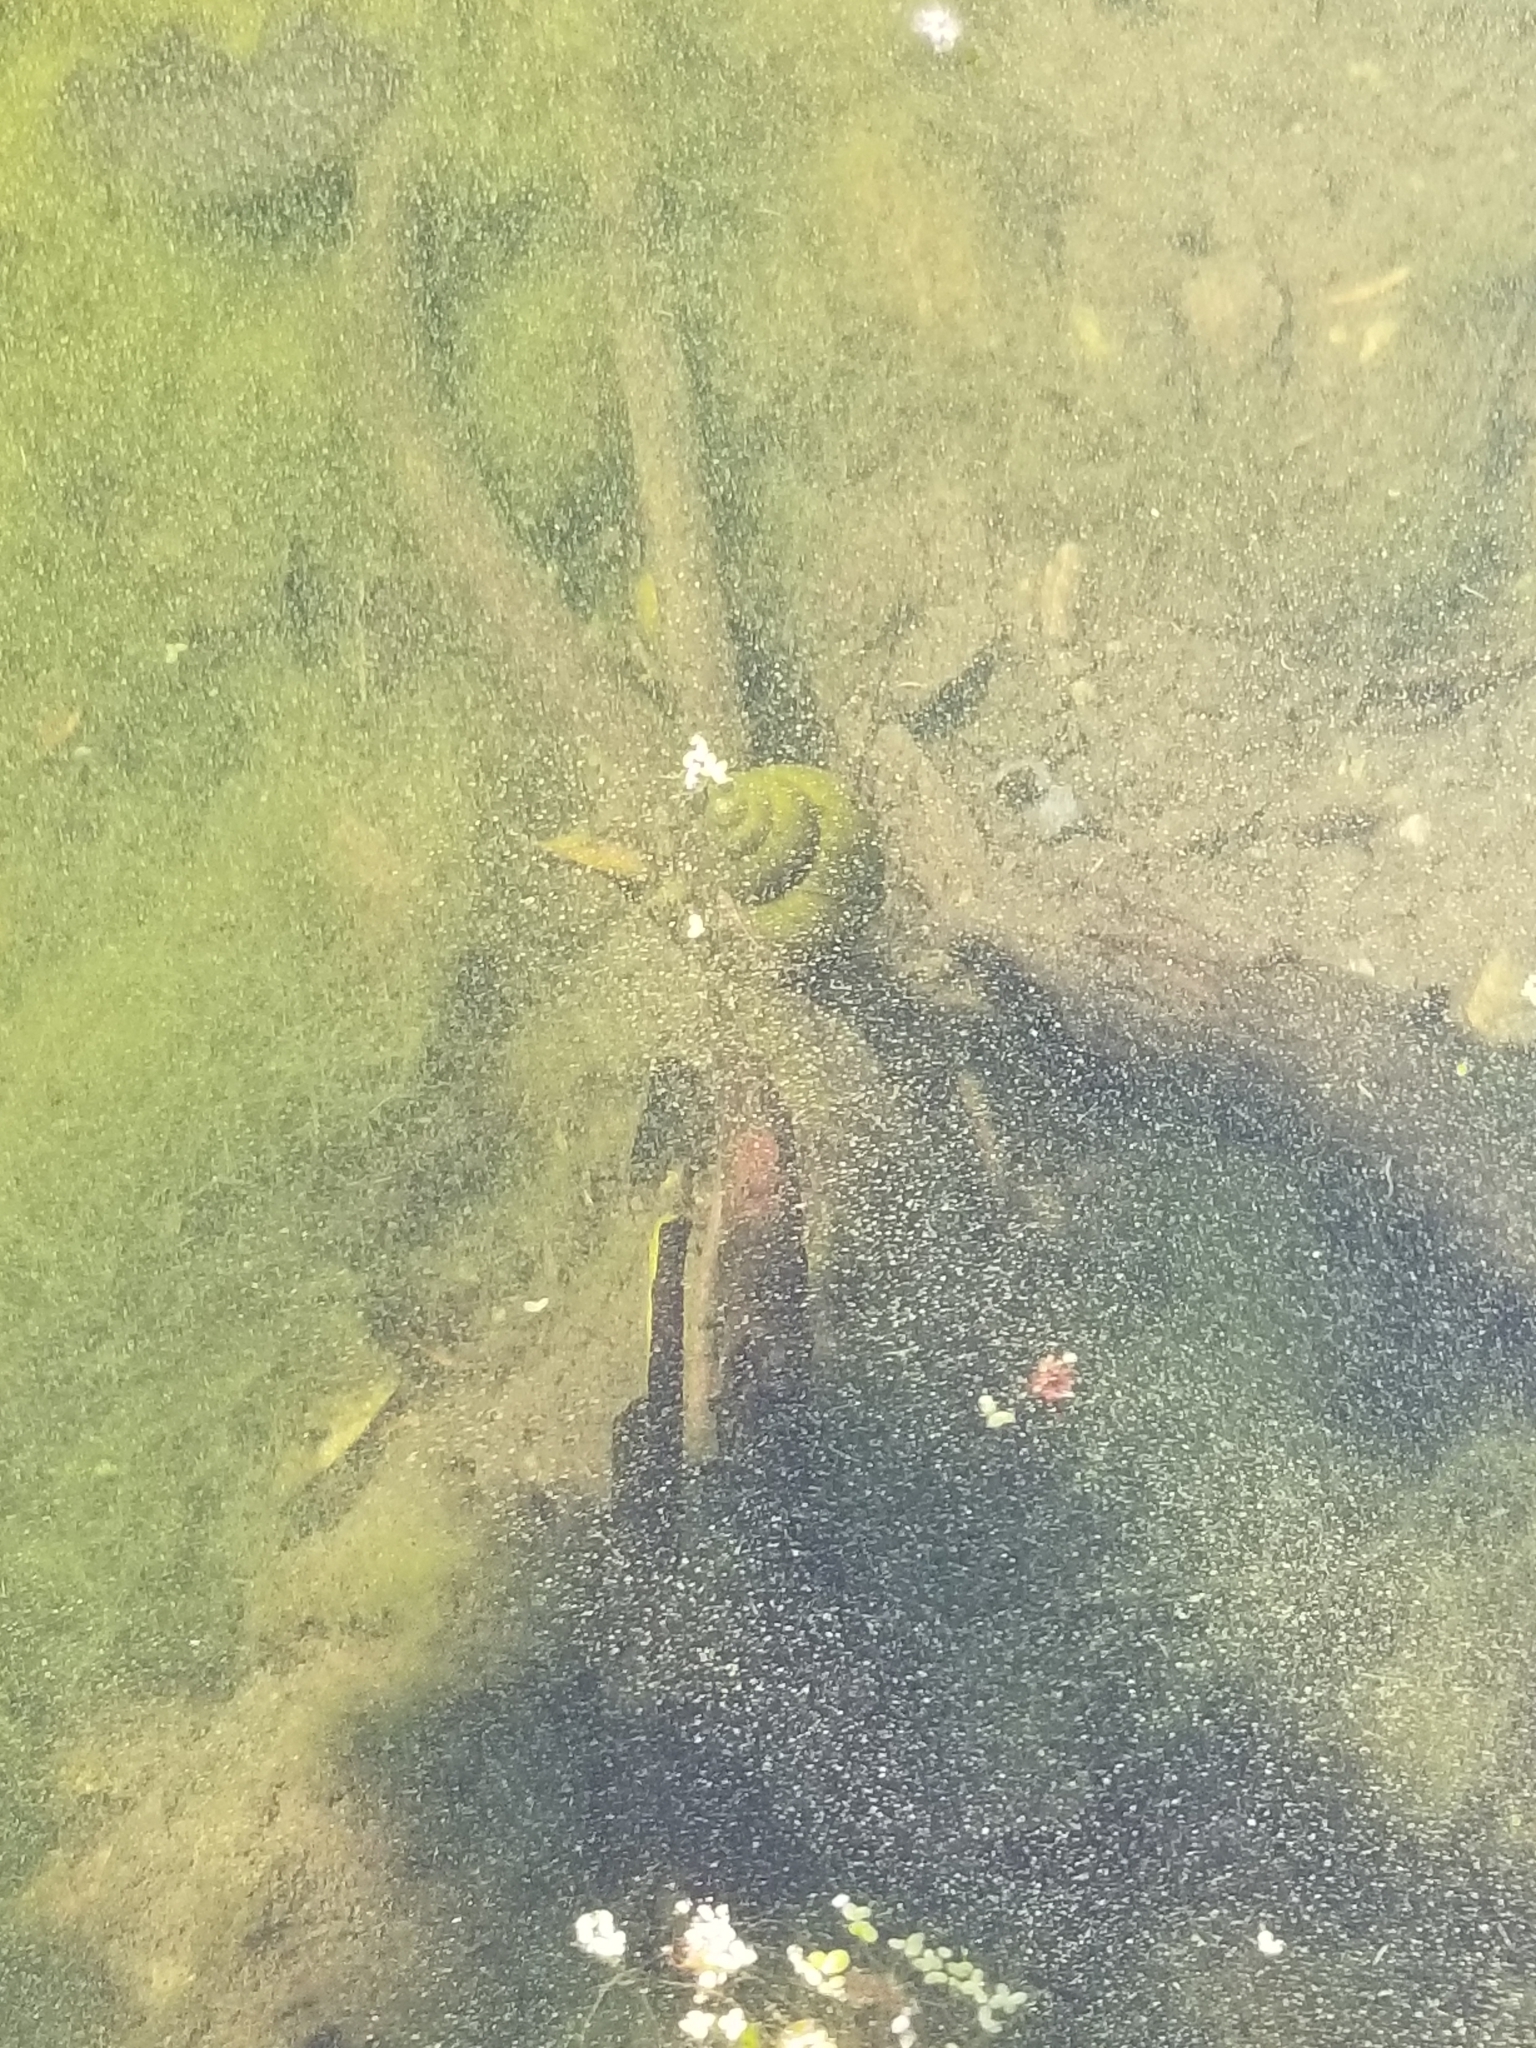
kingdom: Animalia
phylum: Mollusca
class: Gastropoda
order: Architaenioglossa
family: Viviparidae
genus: Cipangopaludina
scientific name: Cipangopaludina chinensis
